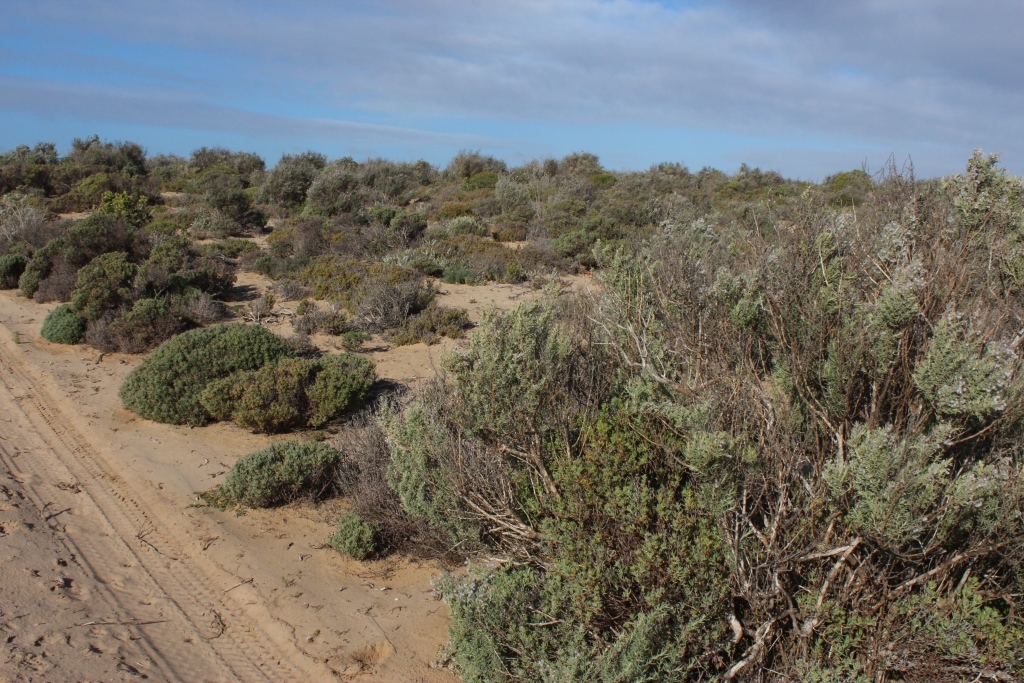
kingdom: Plantae
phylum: Tracheophyta
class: Magnoliopsida
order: Asterales
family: Asteraceae
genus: Eriocephalus
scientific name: Eriocephalus racemosus
